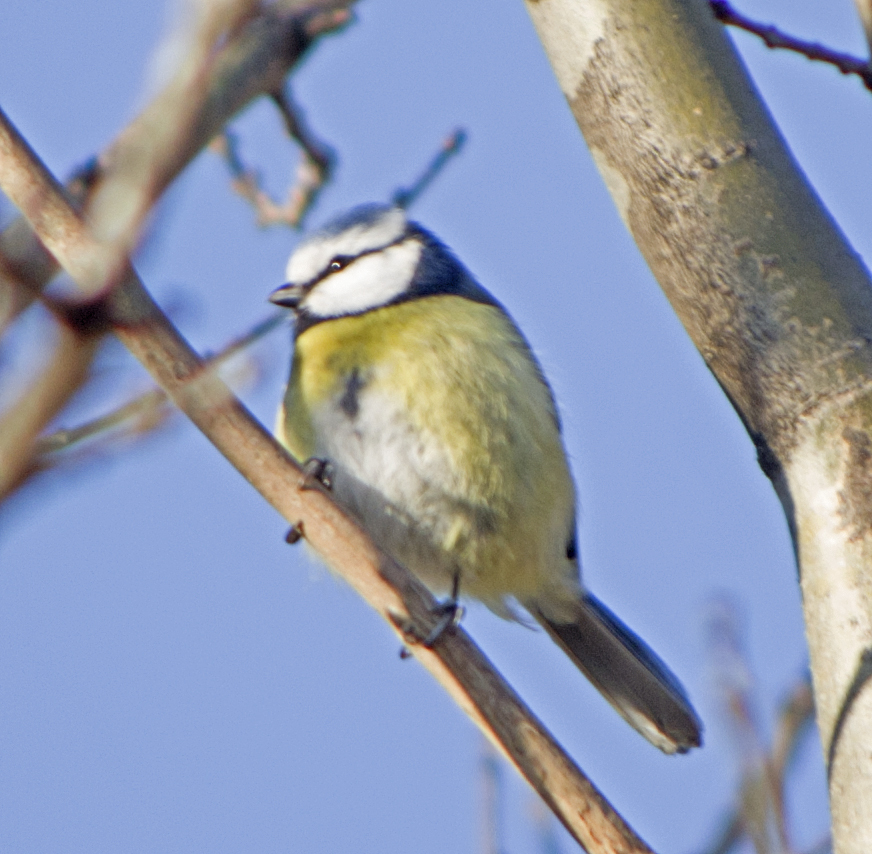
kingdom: Animalia
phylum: Chordata
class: Aves
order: Passeriformes
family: Paridae
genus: Cyanistes
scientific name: Cyanistes caeruleus
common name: Eurasian blue tit
